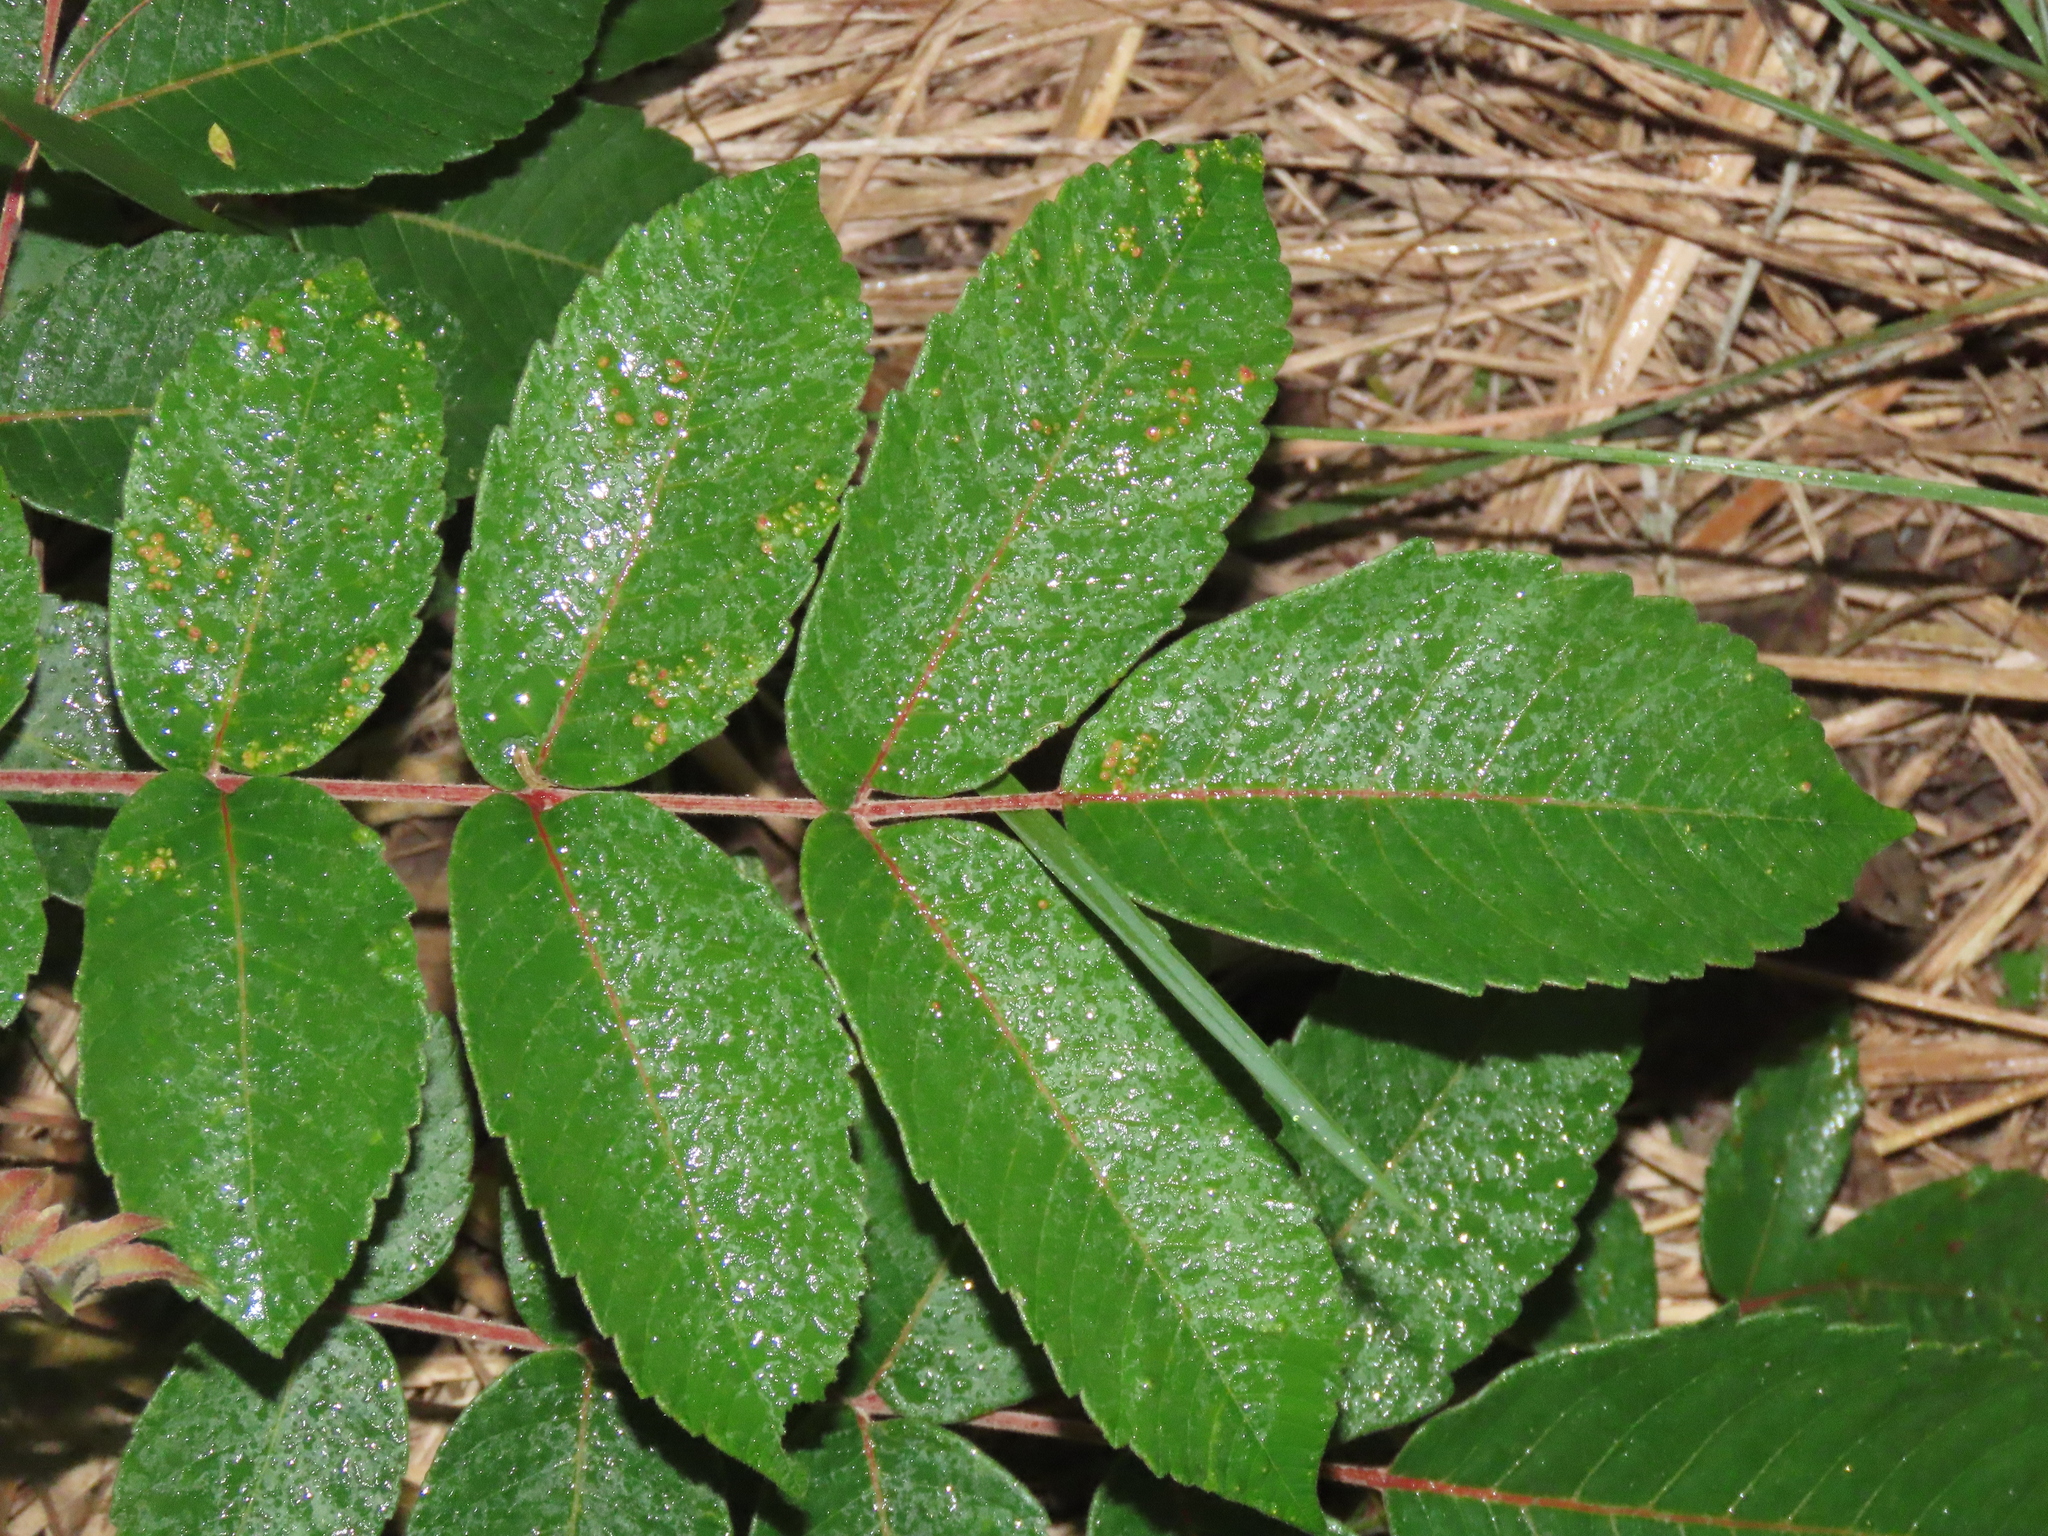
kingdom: Plantae
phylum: Tracheophyta
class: Magnoliopsida
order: Sapindales
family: Anacardiaceae
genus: Rhus
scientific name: Rhus chinensis
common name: Chinese gall
